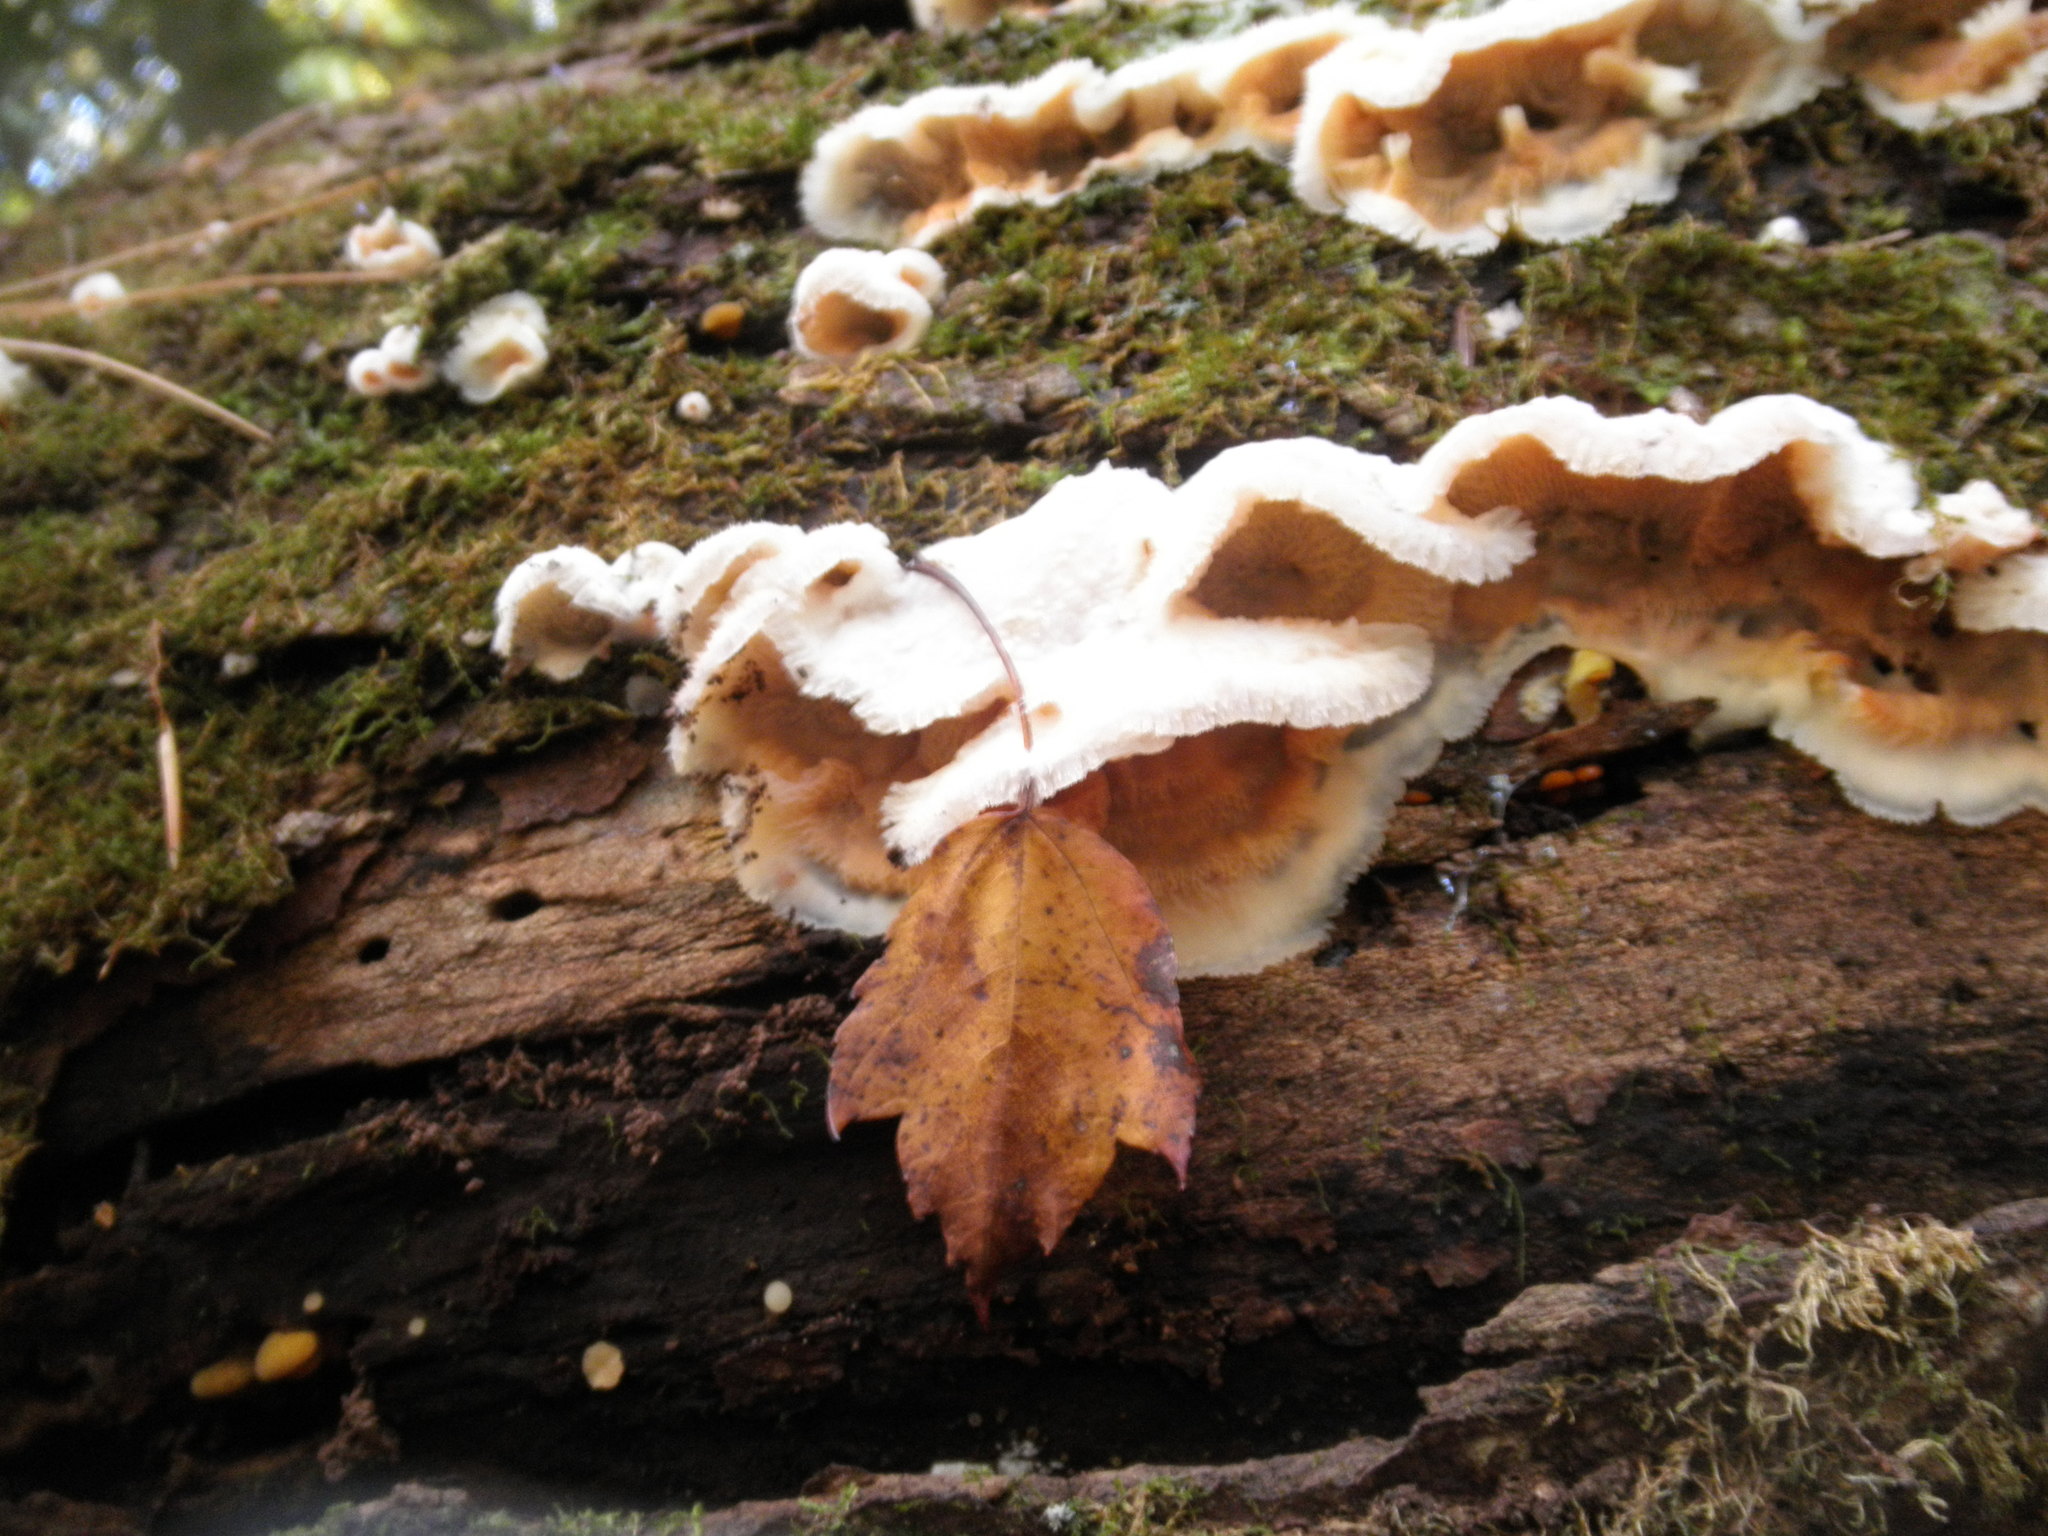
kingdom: Fungi
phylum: Basidiomycota
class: Agaricomycetes
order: Polyporales
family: Meruliaceae
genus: Phlebia
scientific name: Phlebia tremellosa
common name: Jelly rot
